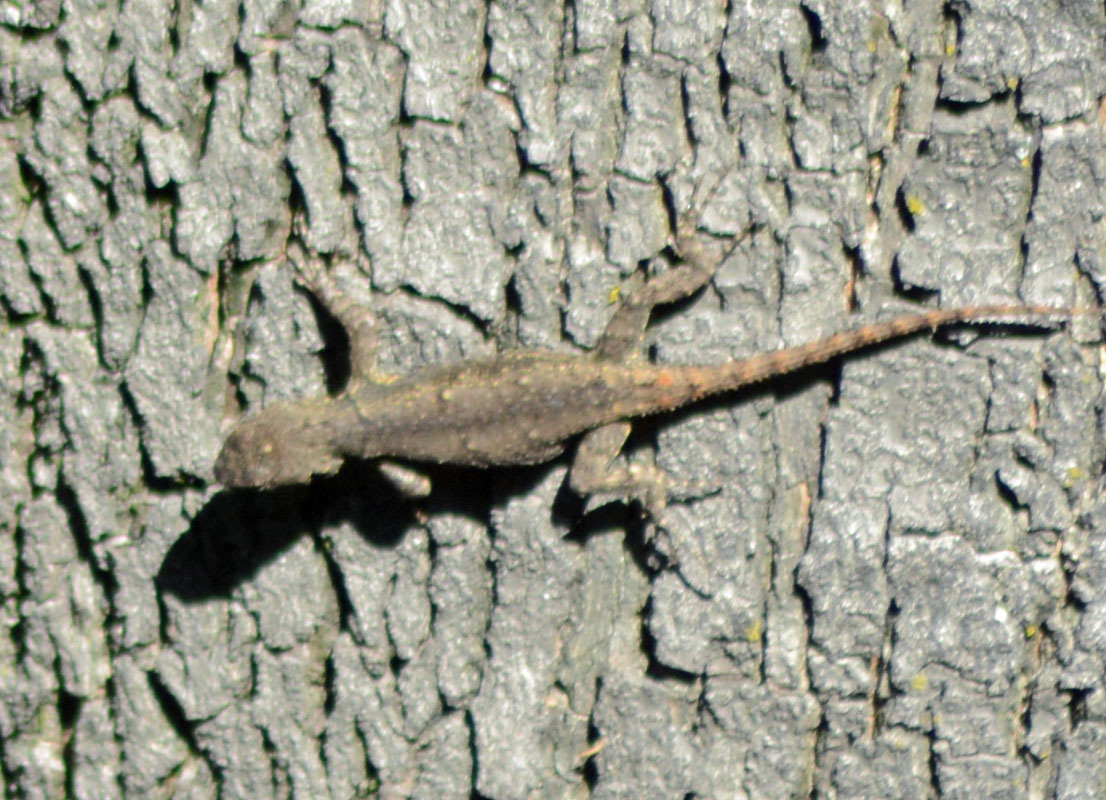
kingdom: Animalia
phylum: Chordata
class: Squamata
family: Phrynosomatidae
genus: Sceloporus
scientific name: Sceloporus grammicus
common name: Mesquite lizard
